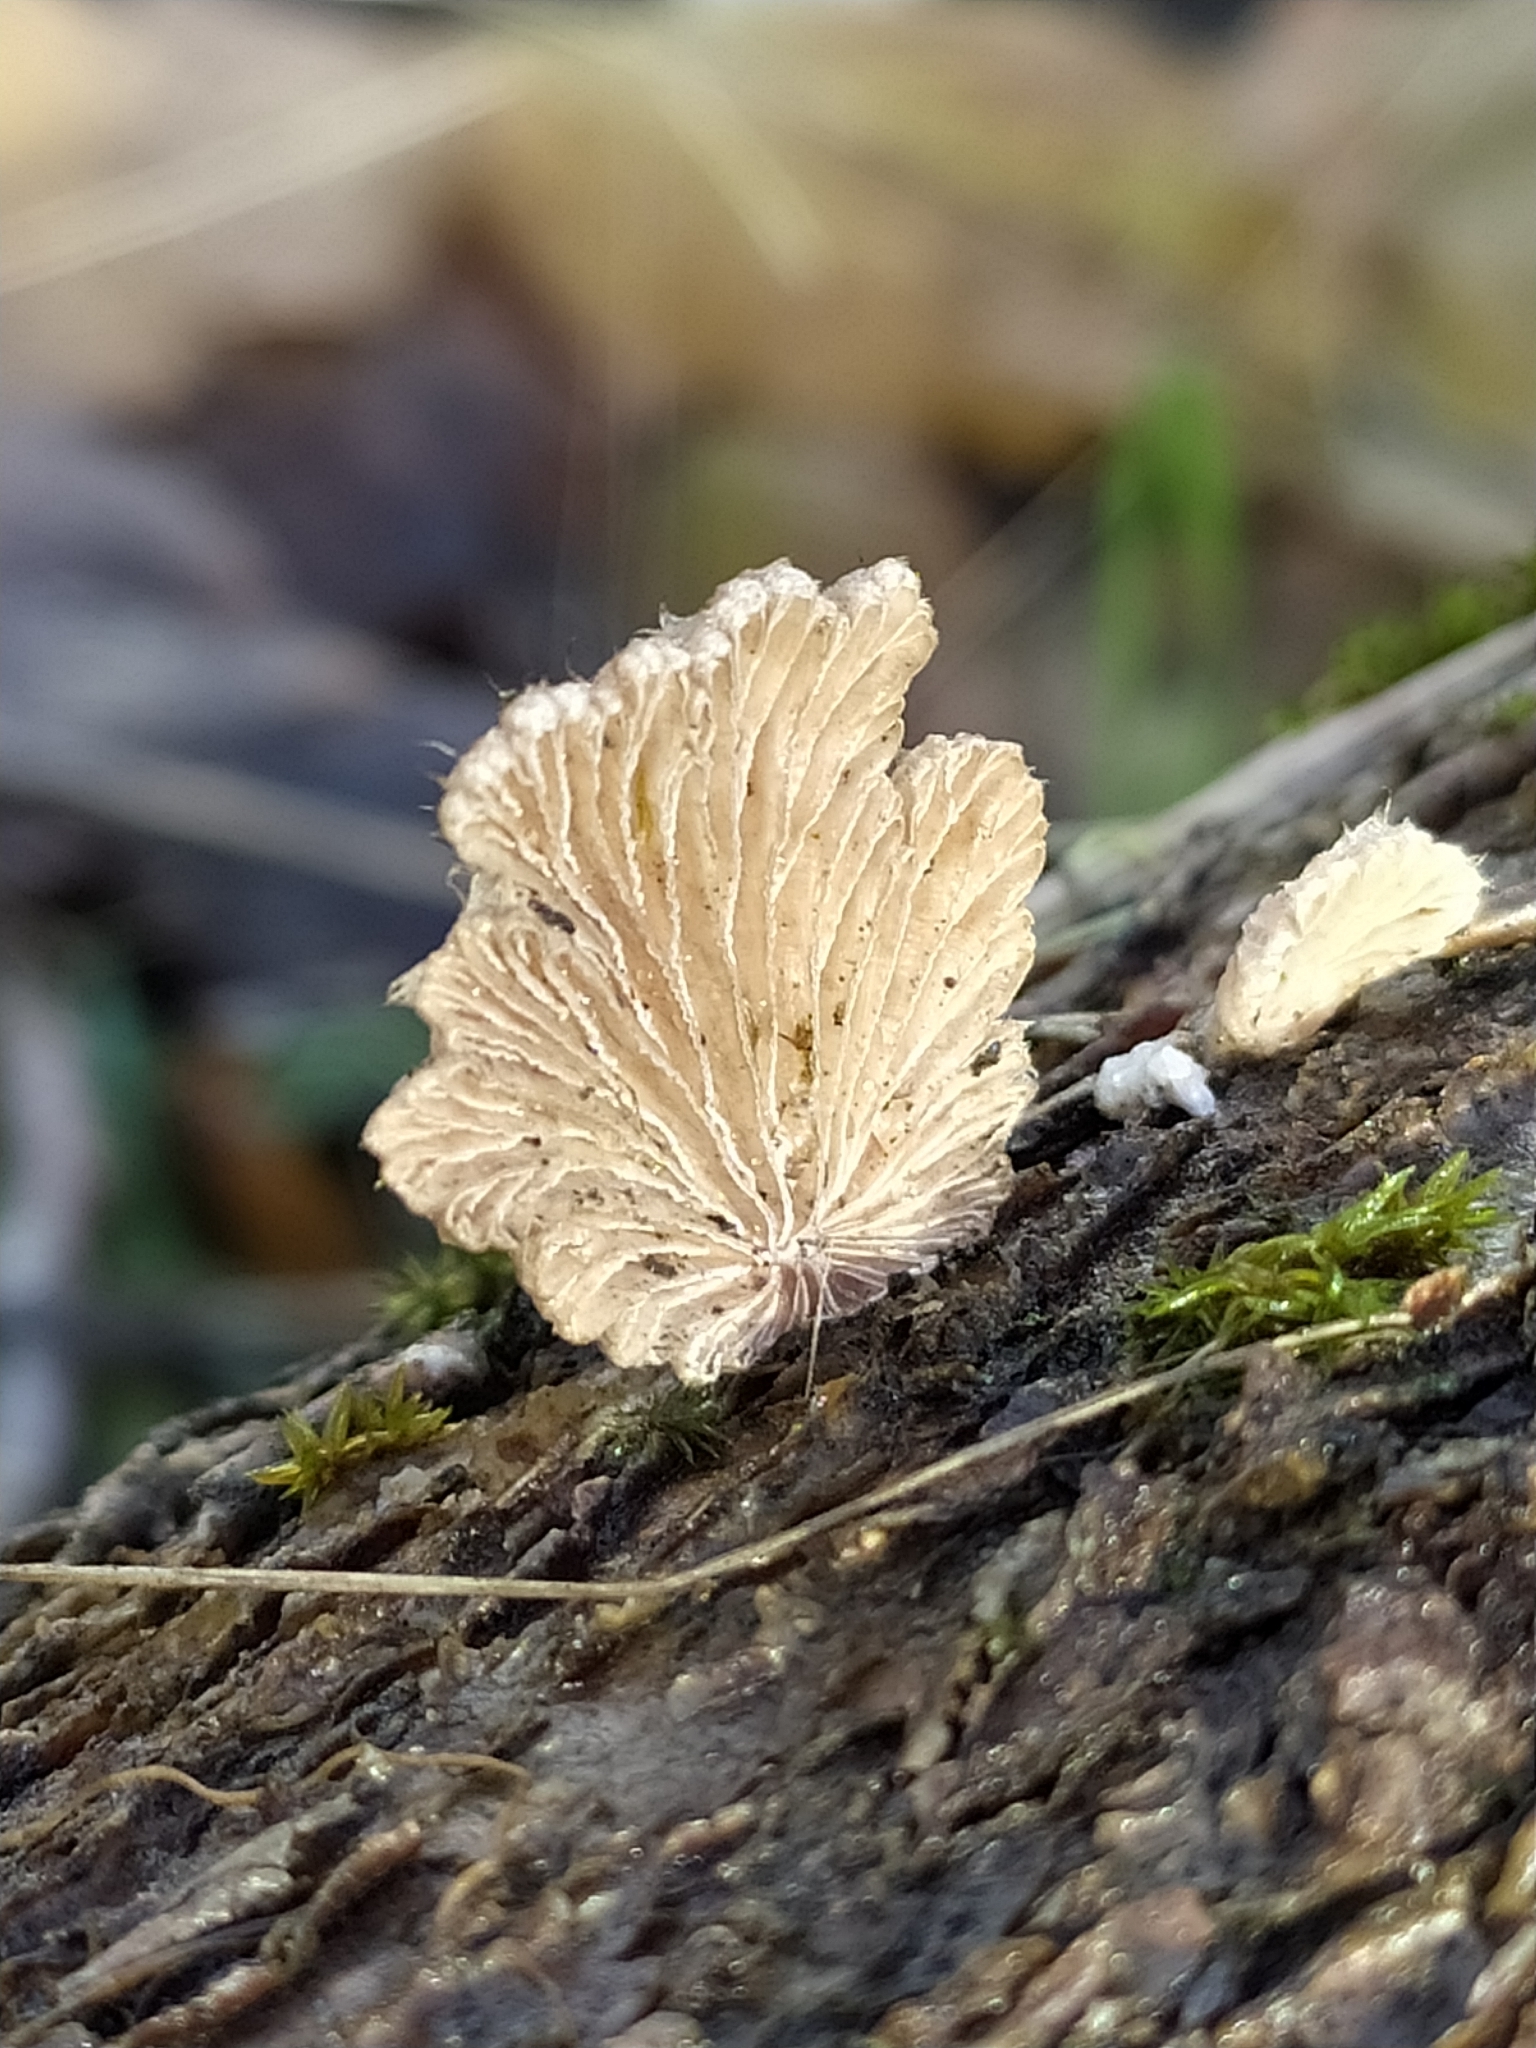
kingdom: Fungi
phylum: Basidiomycota
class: Agaricomycetes
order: Agaricales
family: Schizophyllaceae
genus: Schizophyllum
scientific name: Schizophyllum commune
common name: Common porecrust
